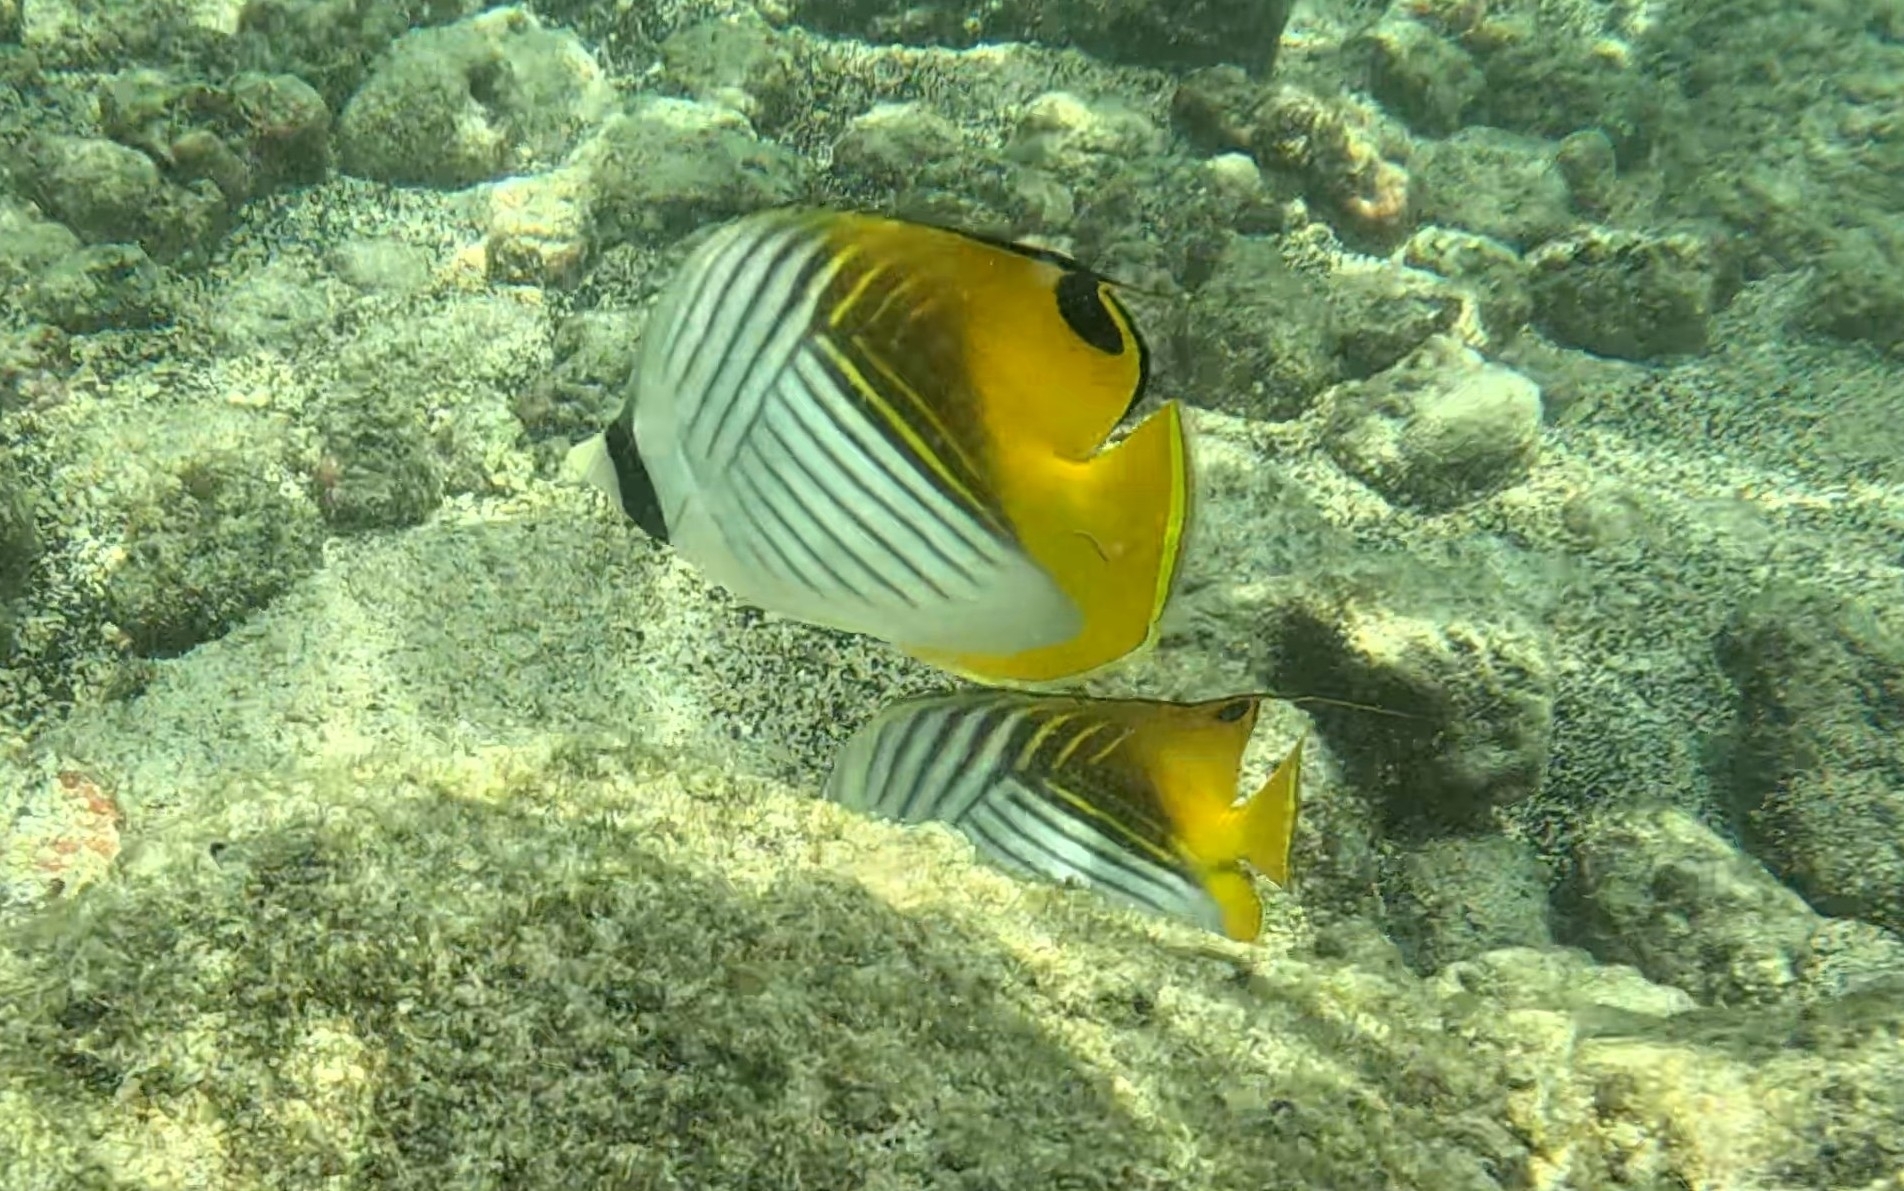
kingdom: Animalia
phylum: Chordata
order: Perciformes
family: Chaetodontidae
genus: Chaetodon
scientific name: Chaetodon auriga
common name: Threadfin butterflyfish
